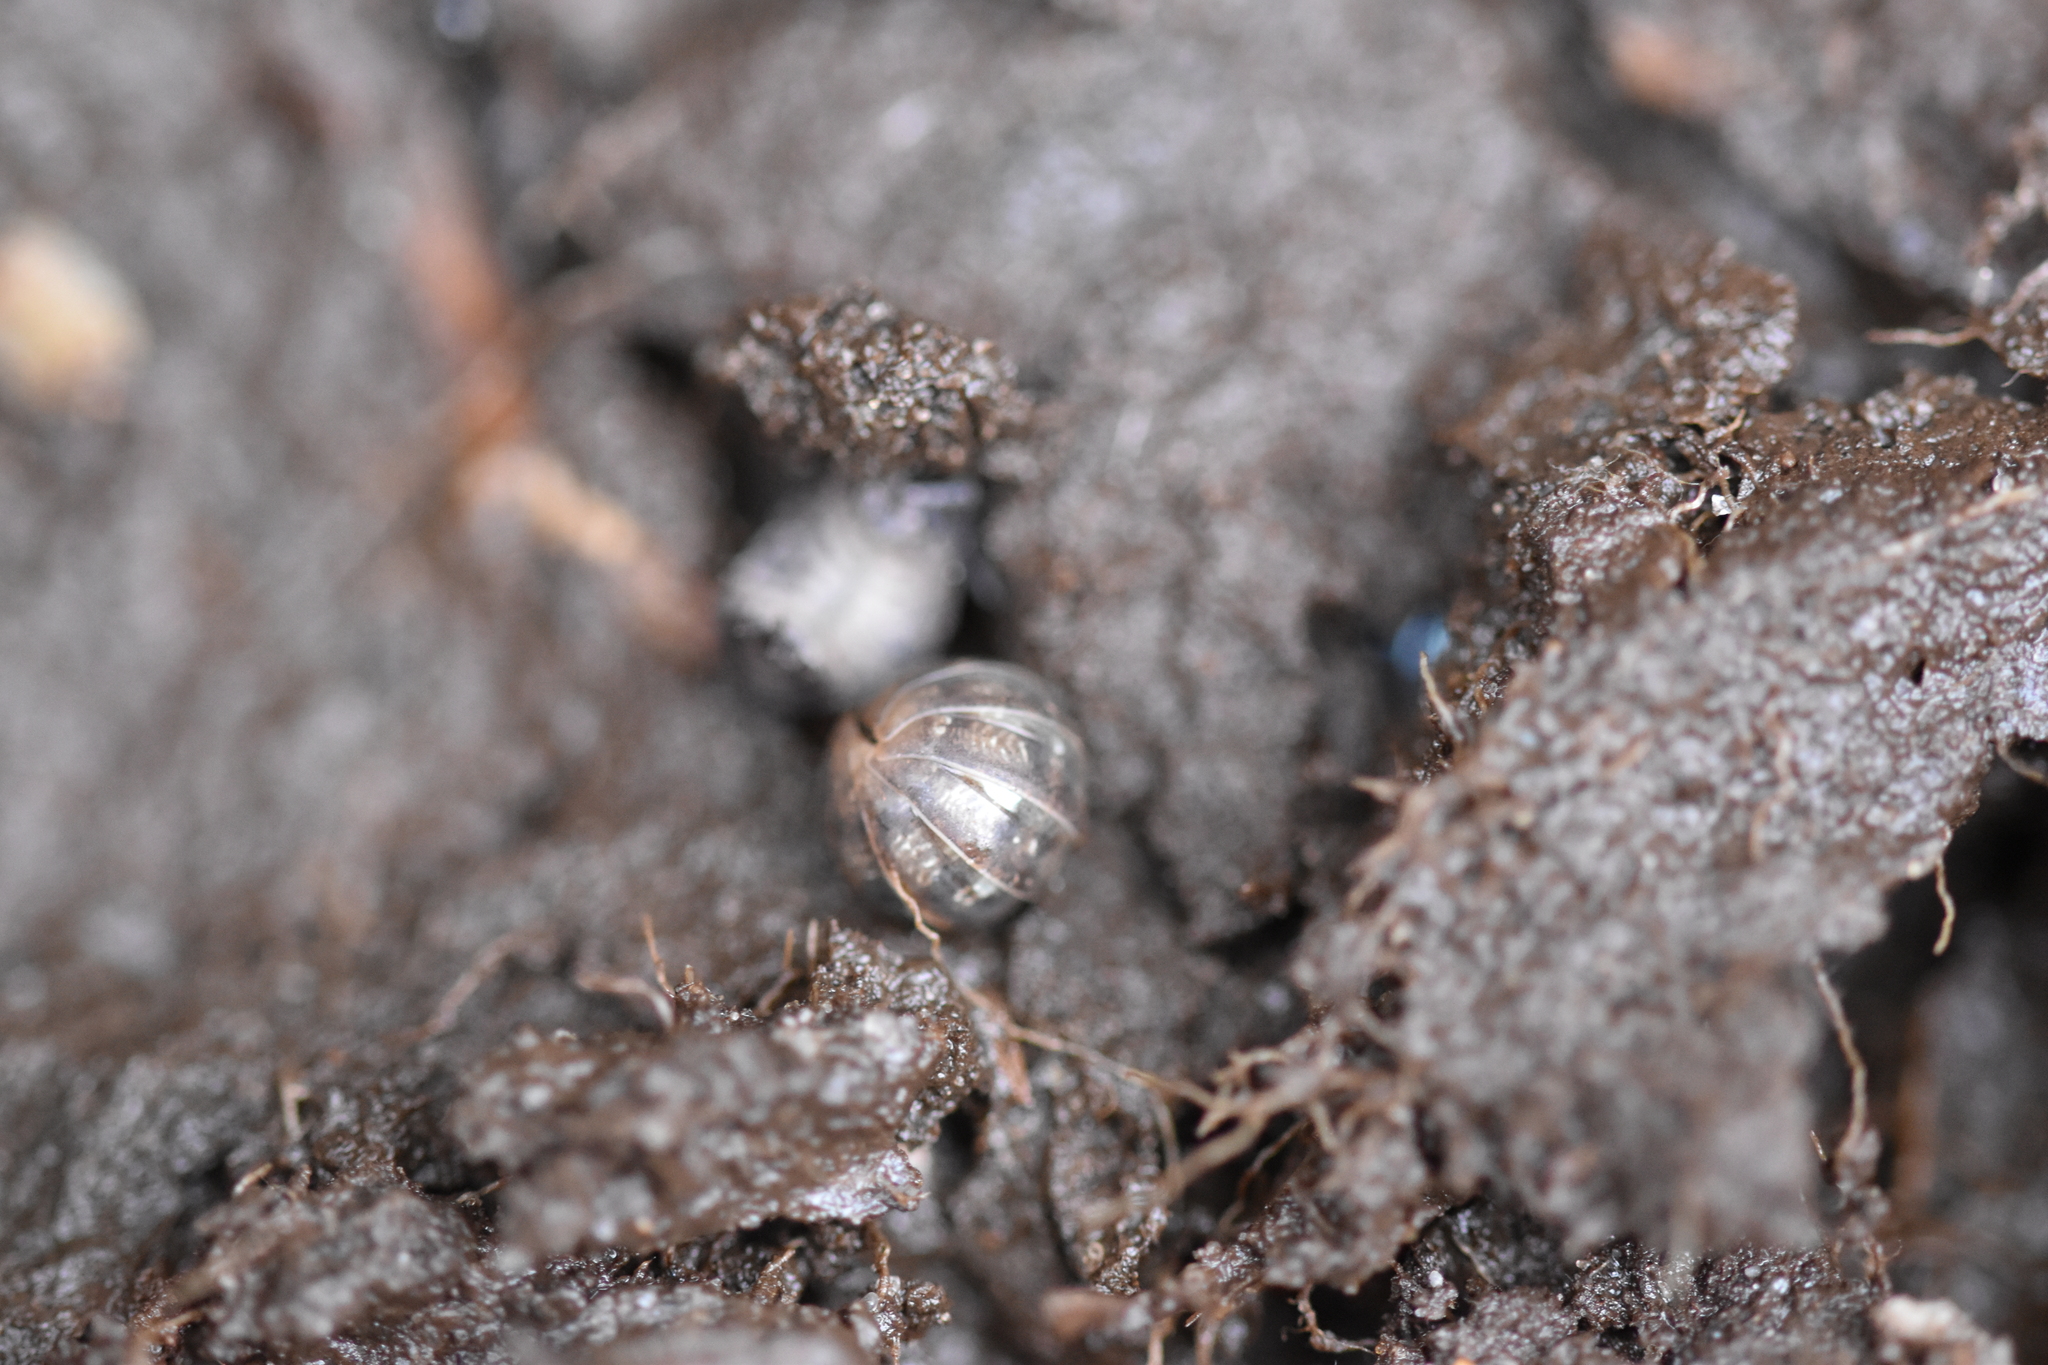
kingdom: Animalia
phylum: Arthropoda
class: Malacostraca
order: Isopoda
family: Armadillidiidae
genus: Armadillidium
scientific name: Armadillidium vulgare
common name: Common pill woodlouse
